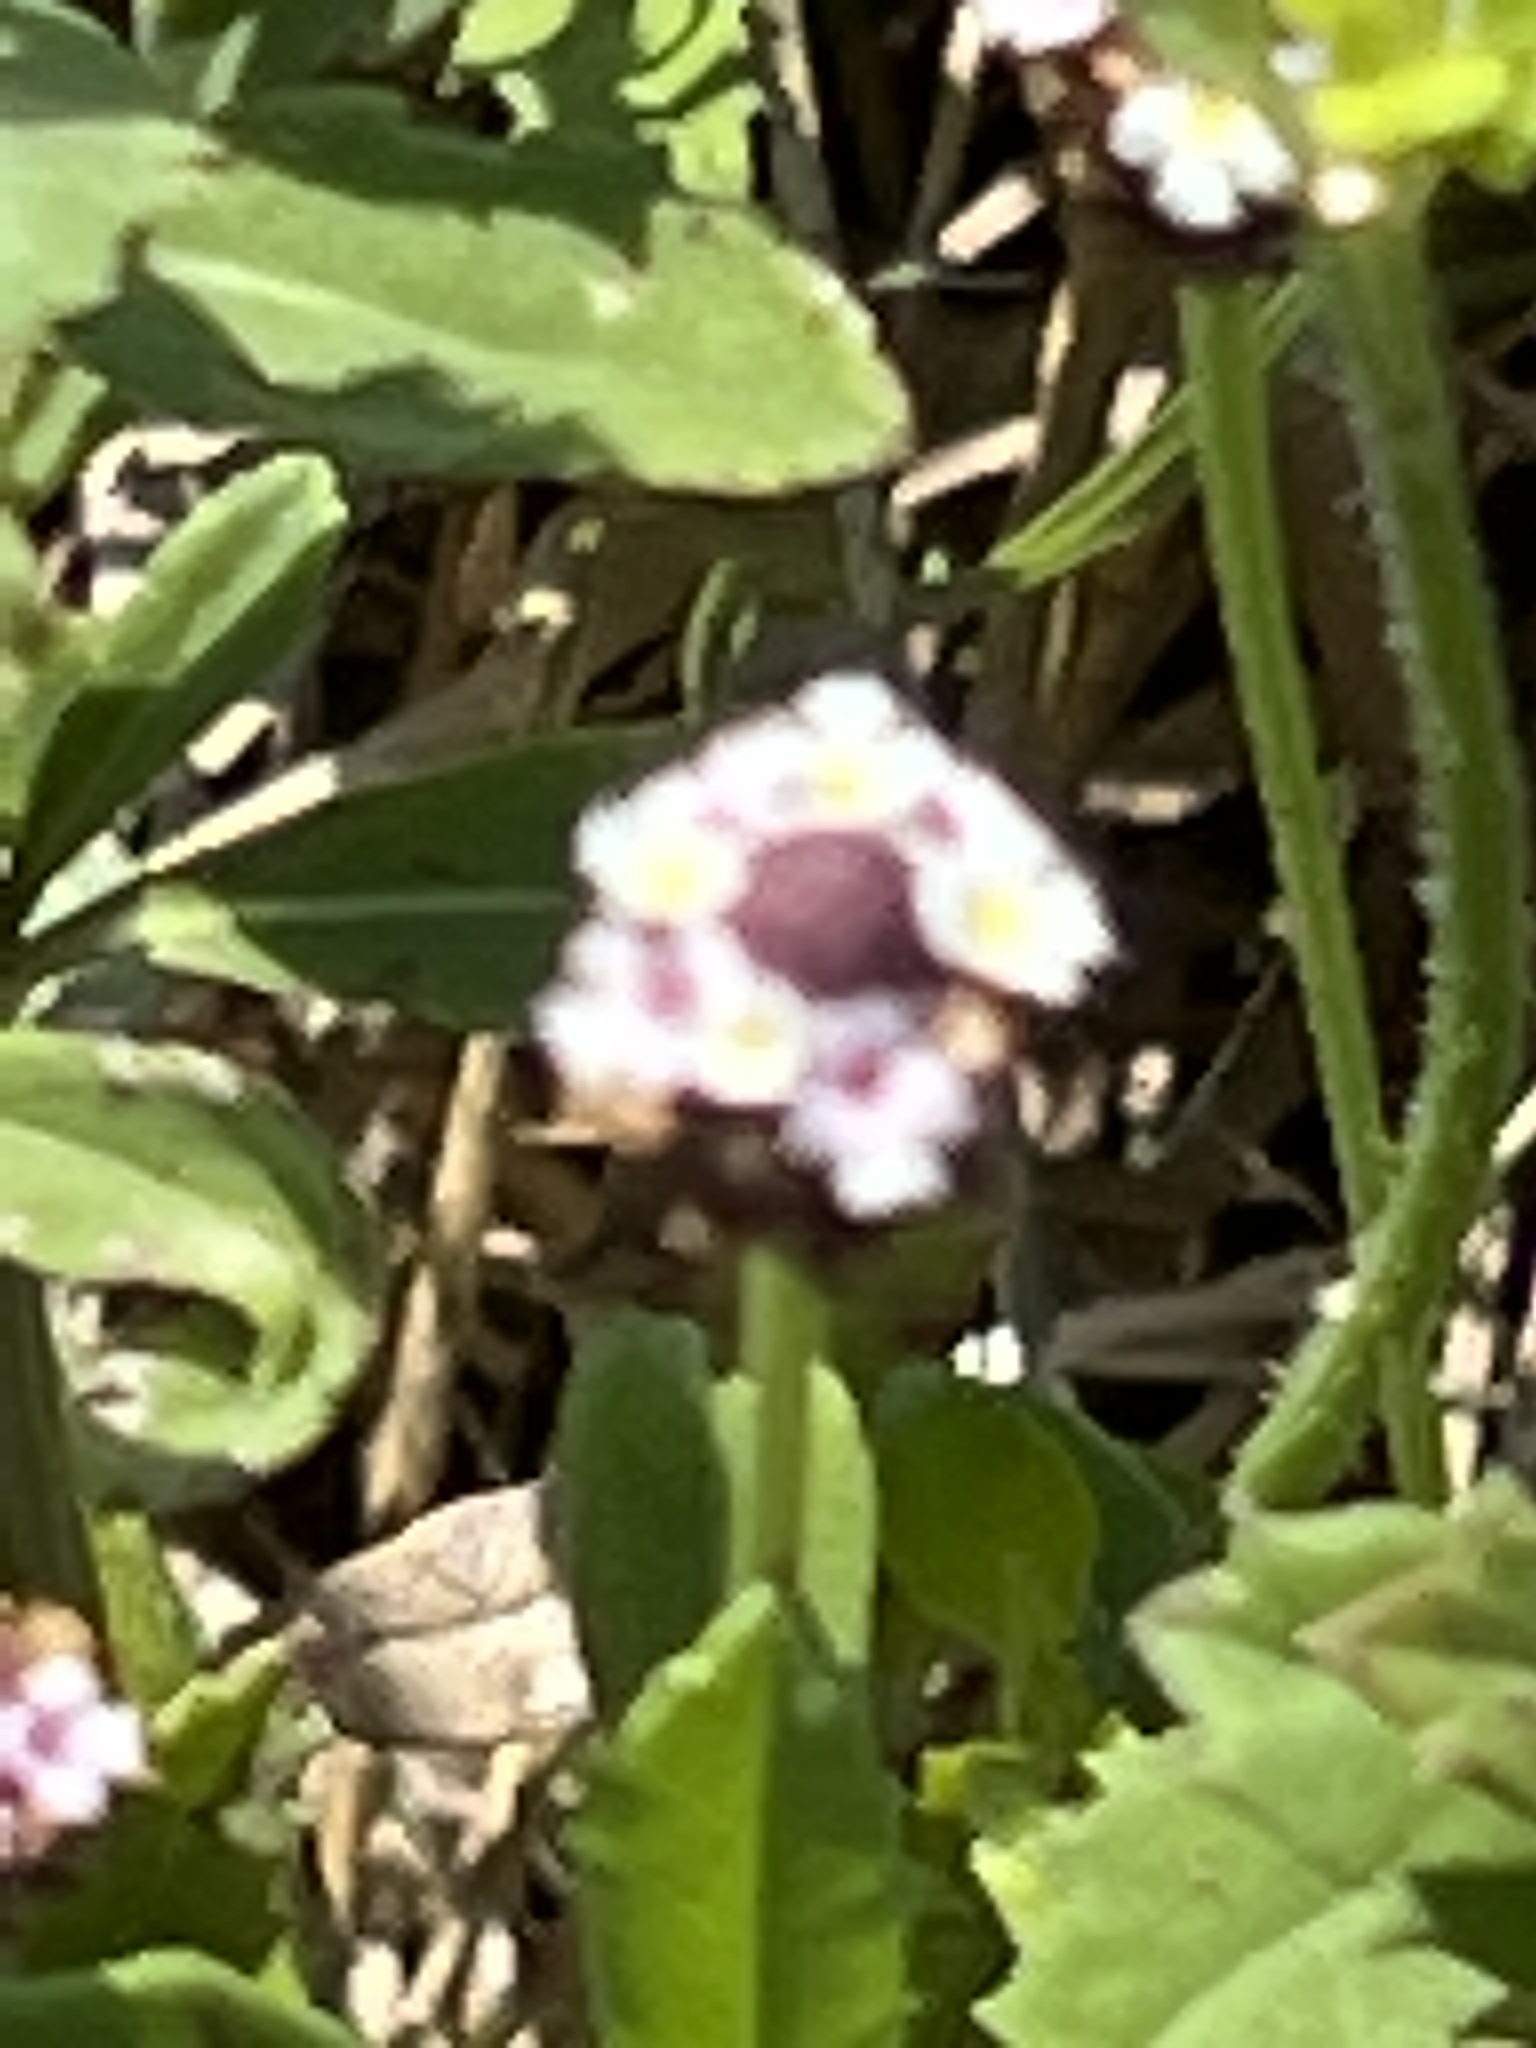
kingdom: Plantae
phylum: Tracheophyta
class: Magnoliopsida
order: Lamiales
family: Verbenaceae
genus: Phyla
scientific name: Phyla nodiflora
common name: Frogfruit
